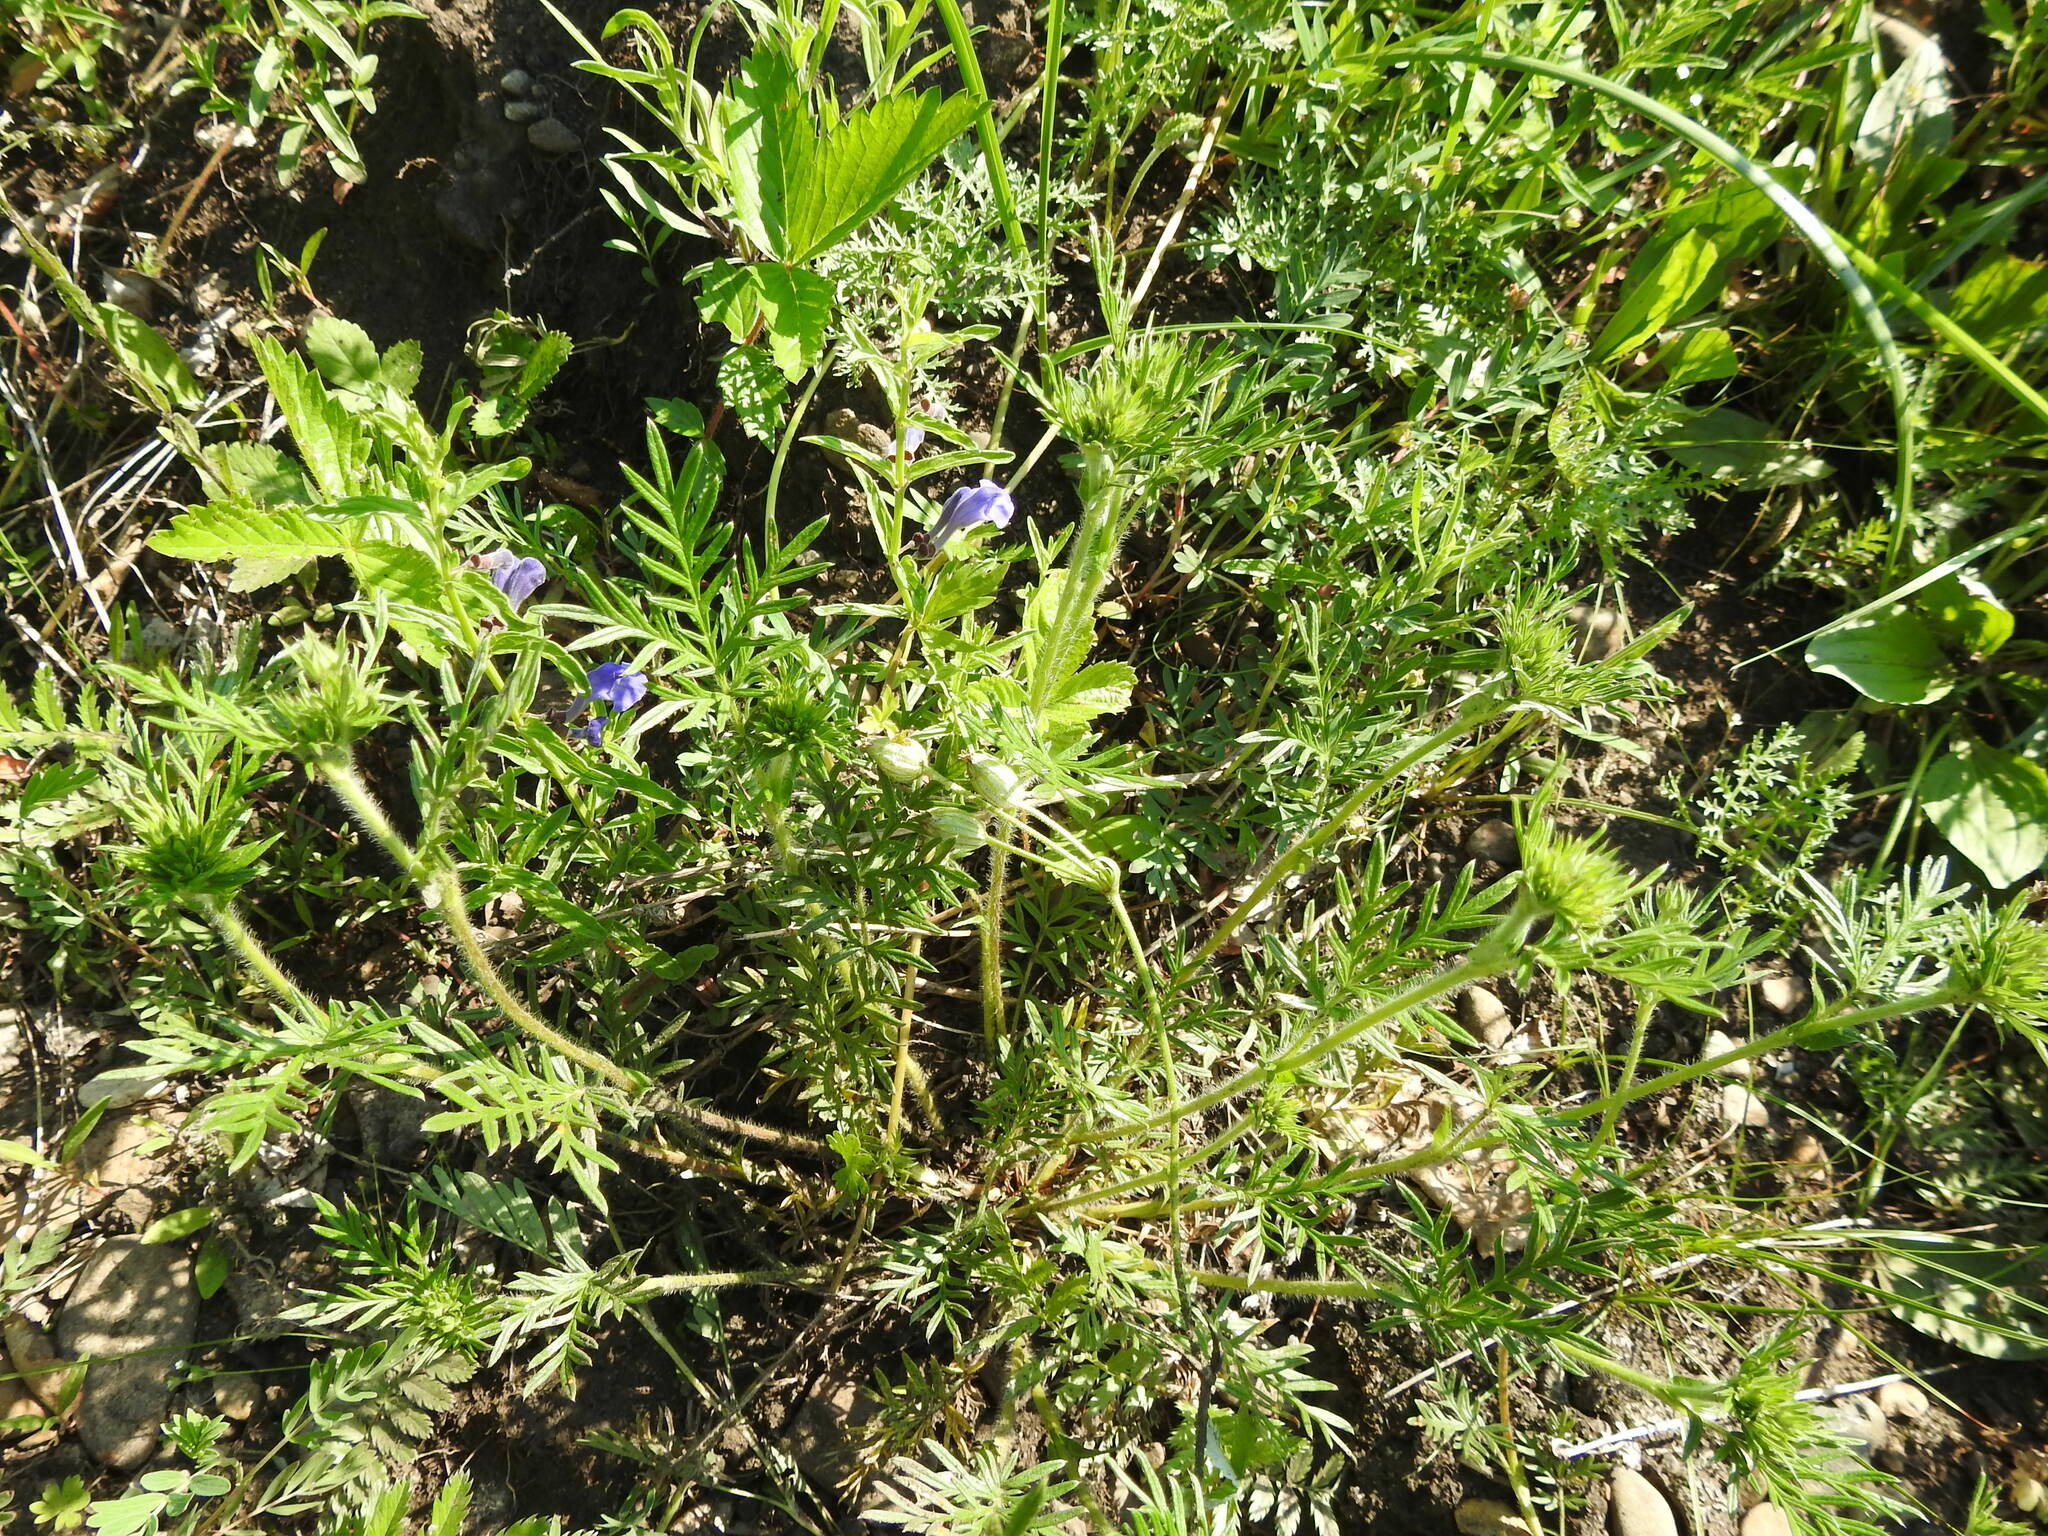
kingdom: Plantae
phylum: Tracheophyta
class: Magnoliopsida
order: Rosales
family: Rosaceae
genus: Potentilla
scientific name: Potentilla tergemina
